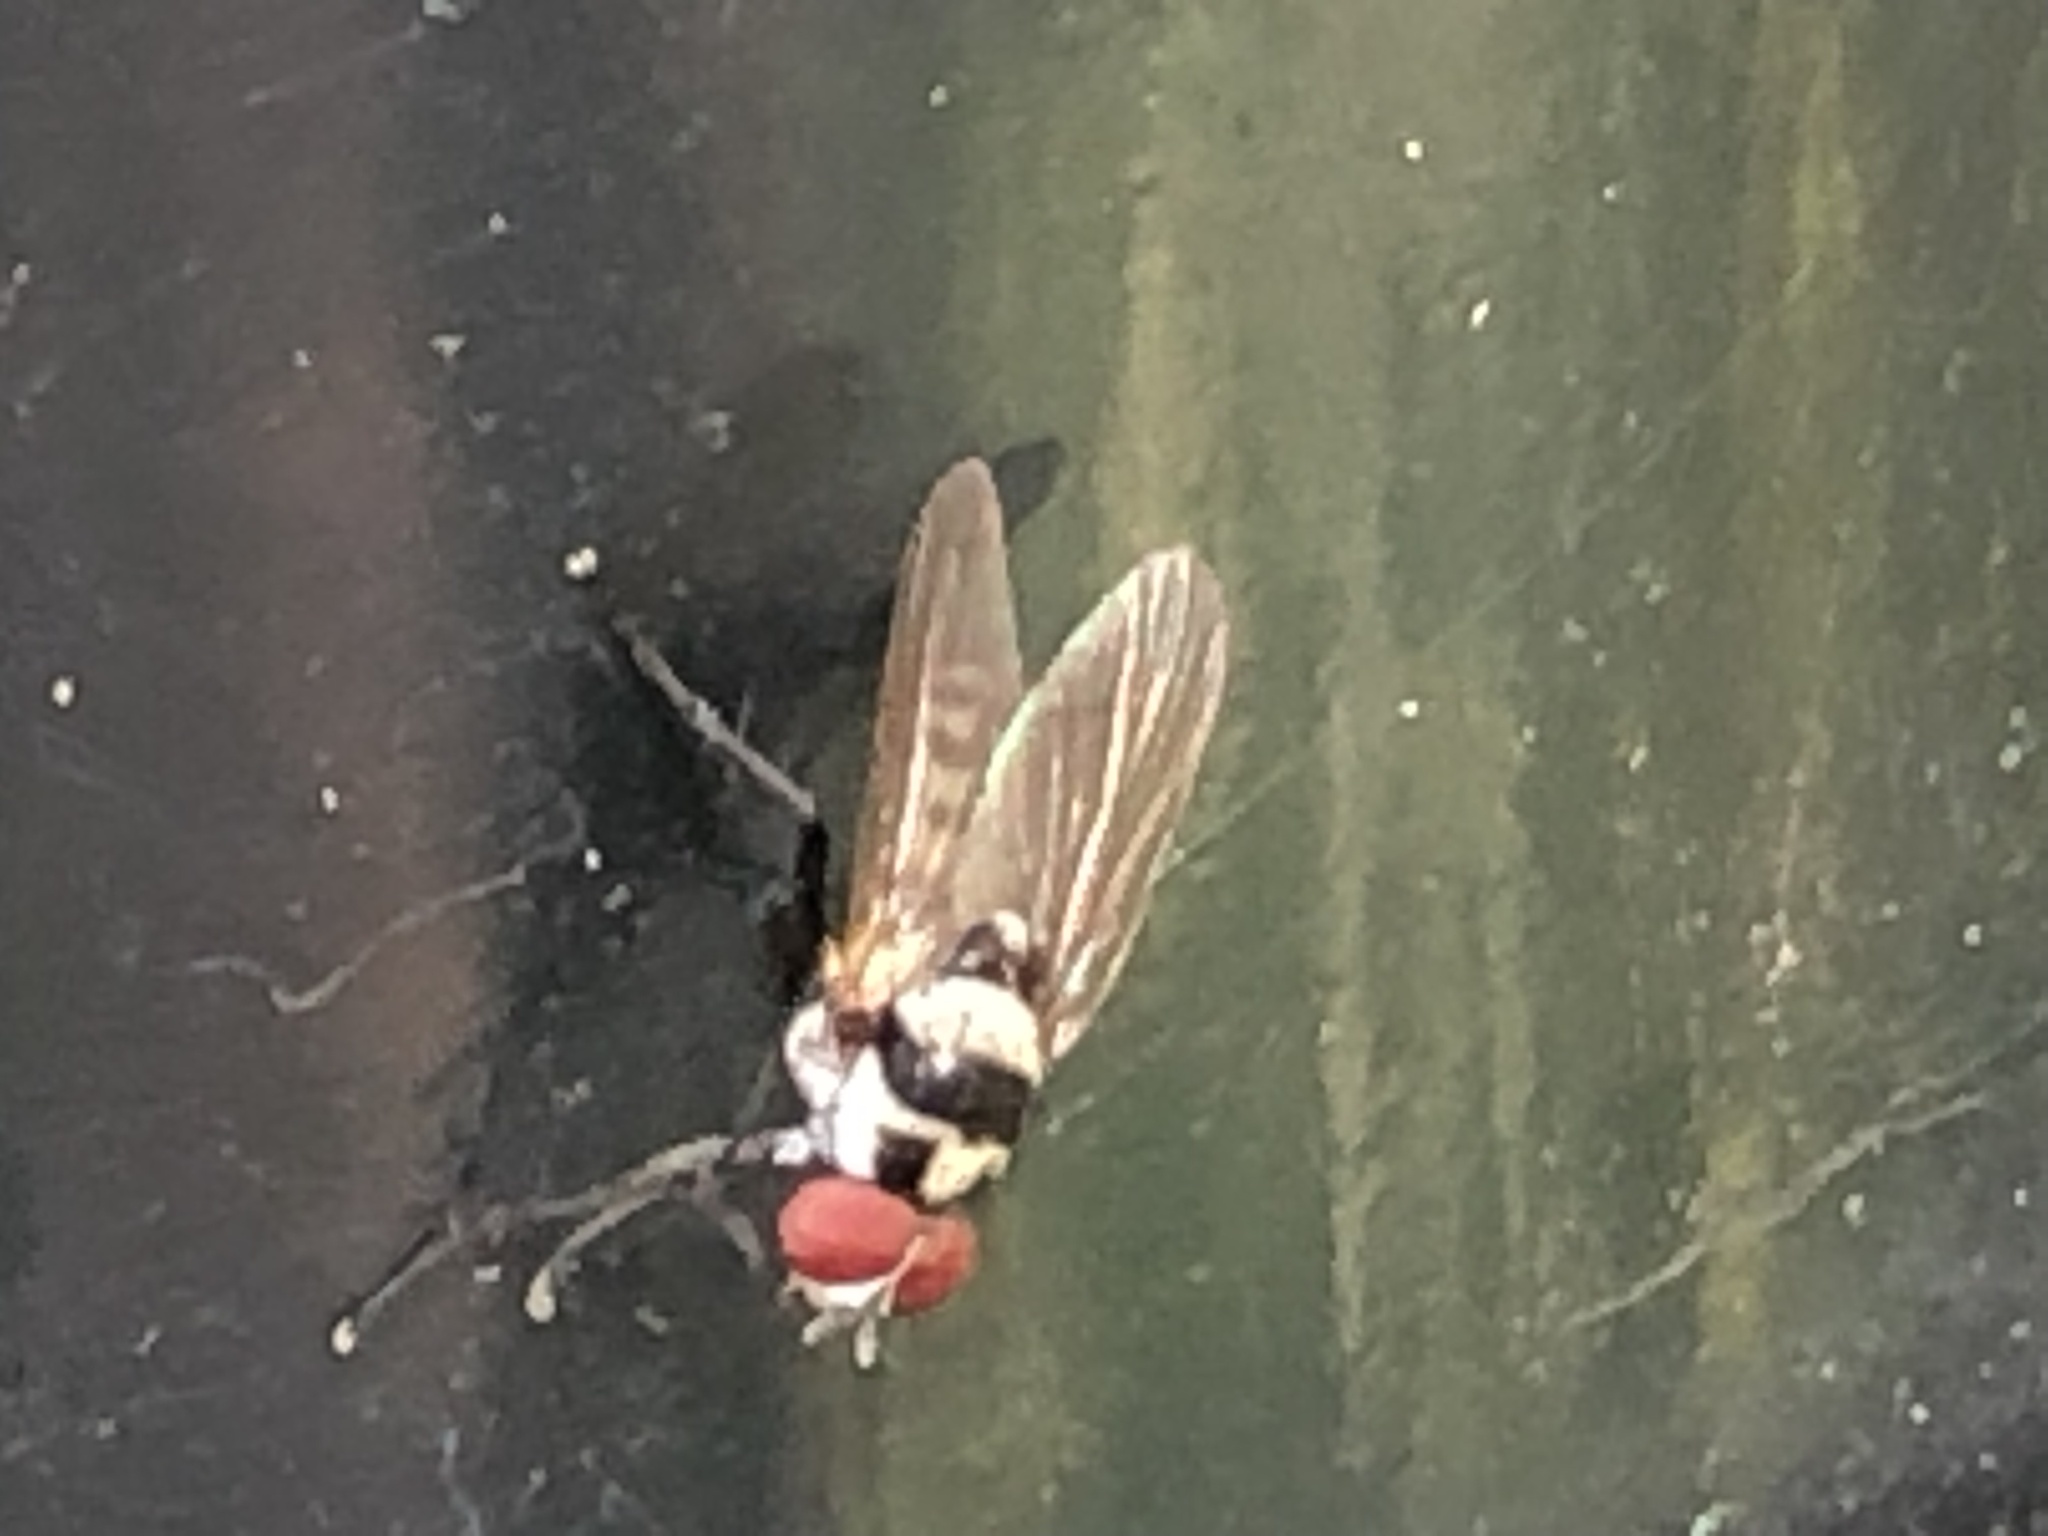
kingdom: Animalia
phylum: Arthropoda
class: Insecta
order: Diptera
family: Anthomyiidae
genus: Anthomyia
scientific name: Anthomyia oculifera
